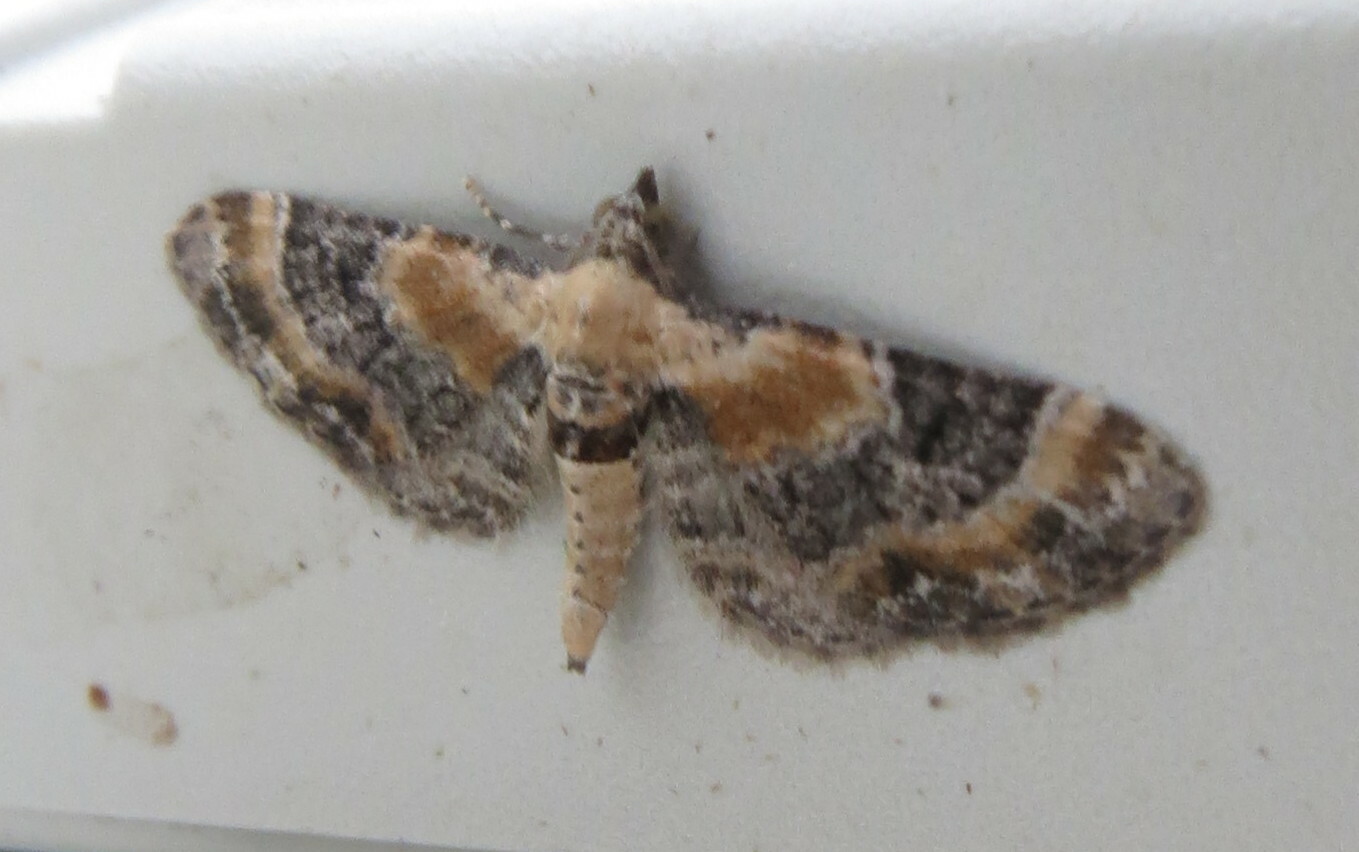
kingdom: Animalia
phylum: Arthropoda
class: Insecta
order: Lepidoptera
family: Geometridae
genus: Eupithecia
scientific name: Eupithecia linariata
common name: Toadflax pug
